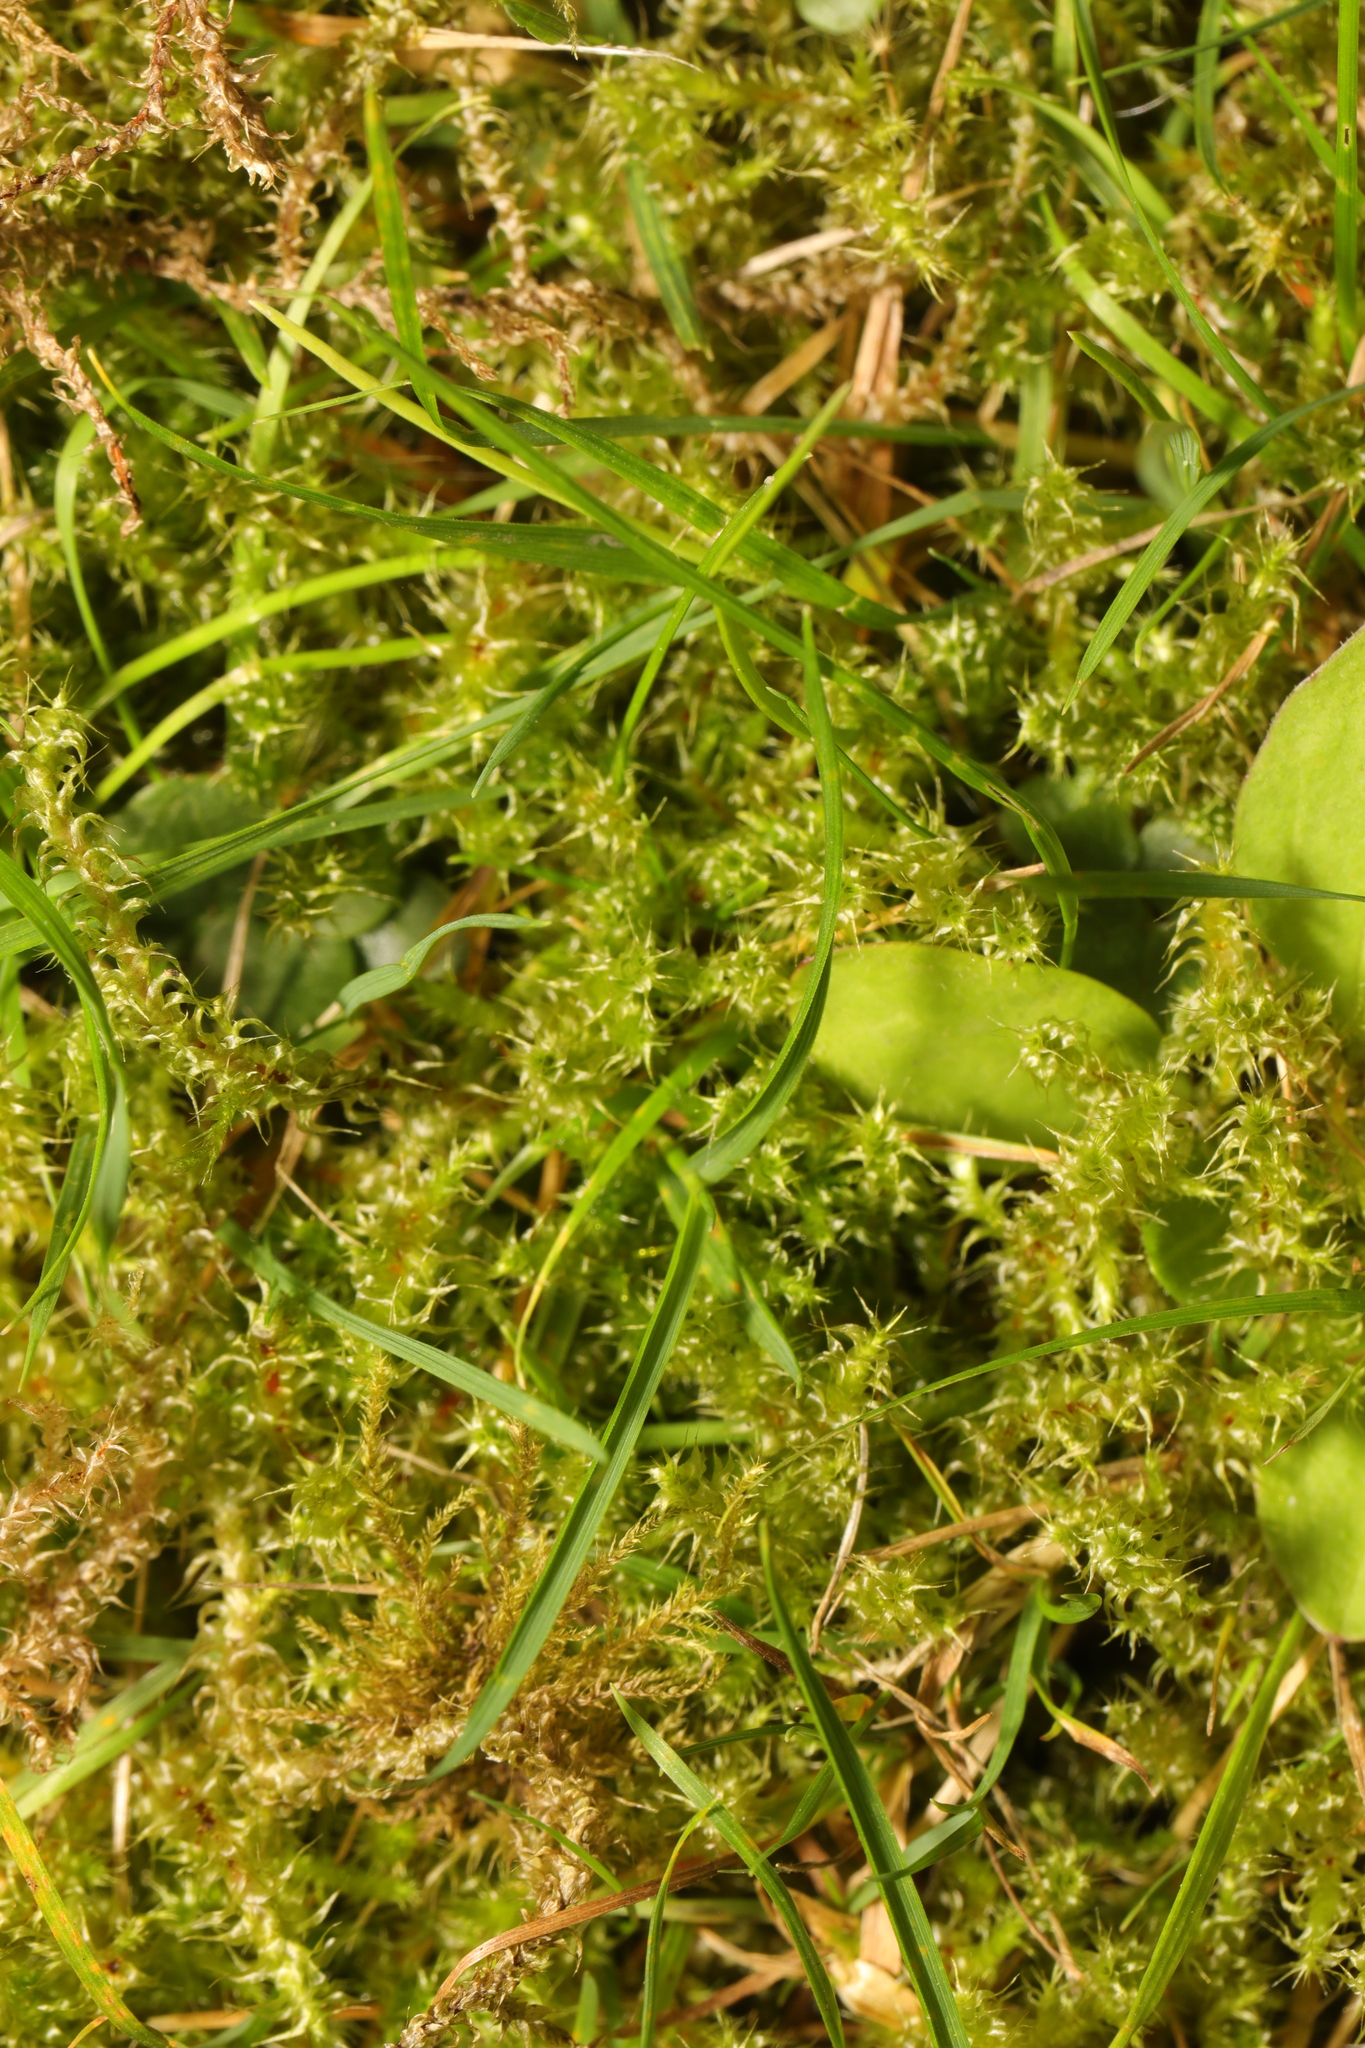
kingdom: Plantae
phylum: Bryophyta
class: Bryopsida
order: Hypnales
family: Hylocomiaceae
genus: Rhytidiadelphus
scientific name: Rhytidiadelphus squarrosus
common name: Springy turf-moss
